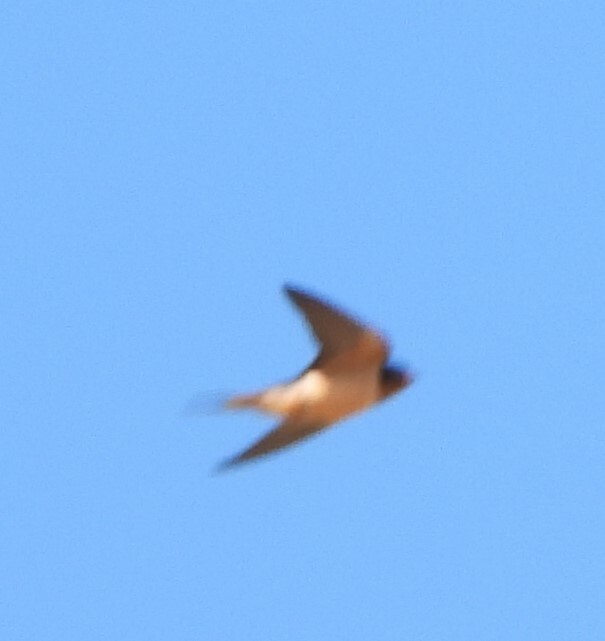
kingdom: Animalia
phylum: Chordata
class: Aves
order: Passeriformes
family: Hirundinidae
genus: Hirundo
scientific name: Hirundo rustica
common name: Barn swallow
